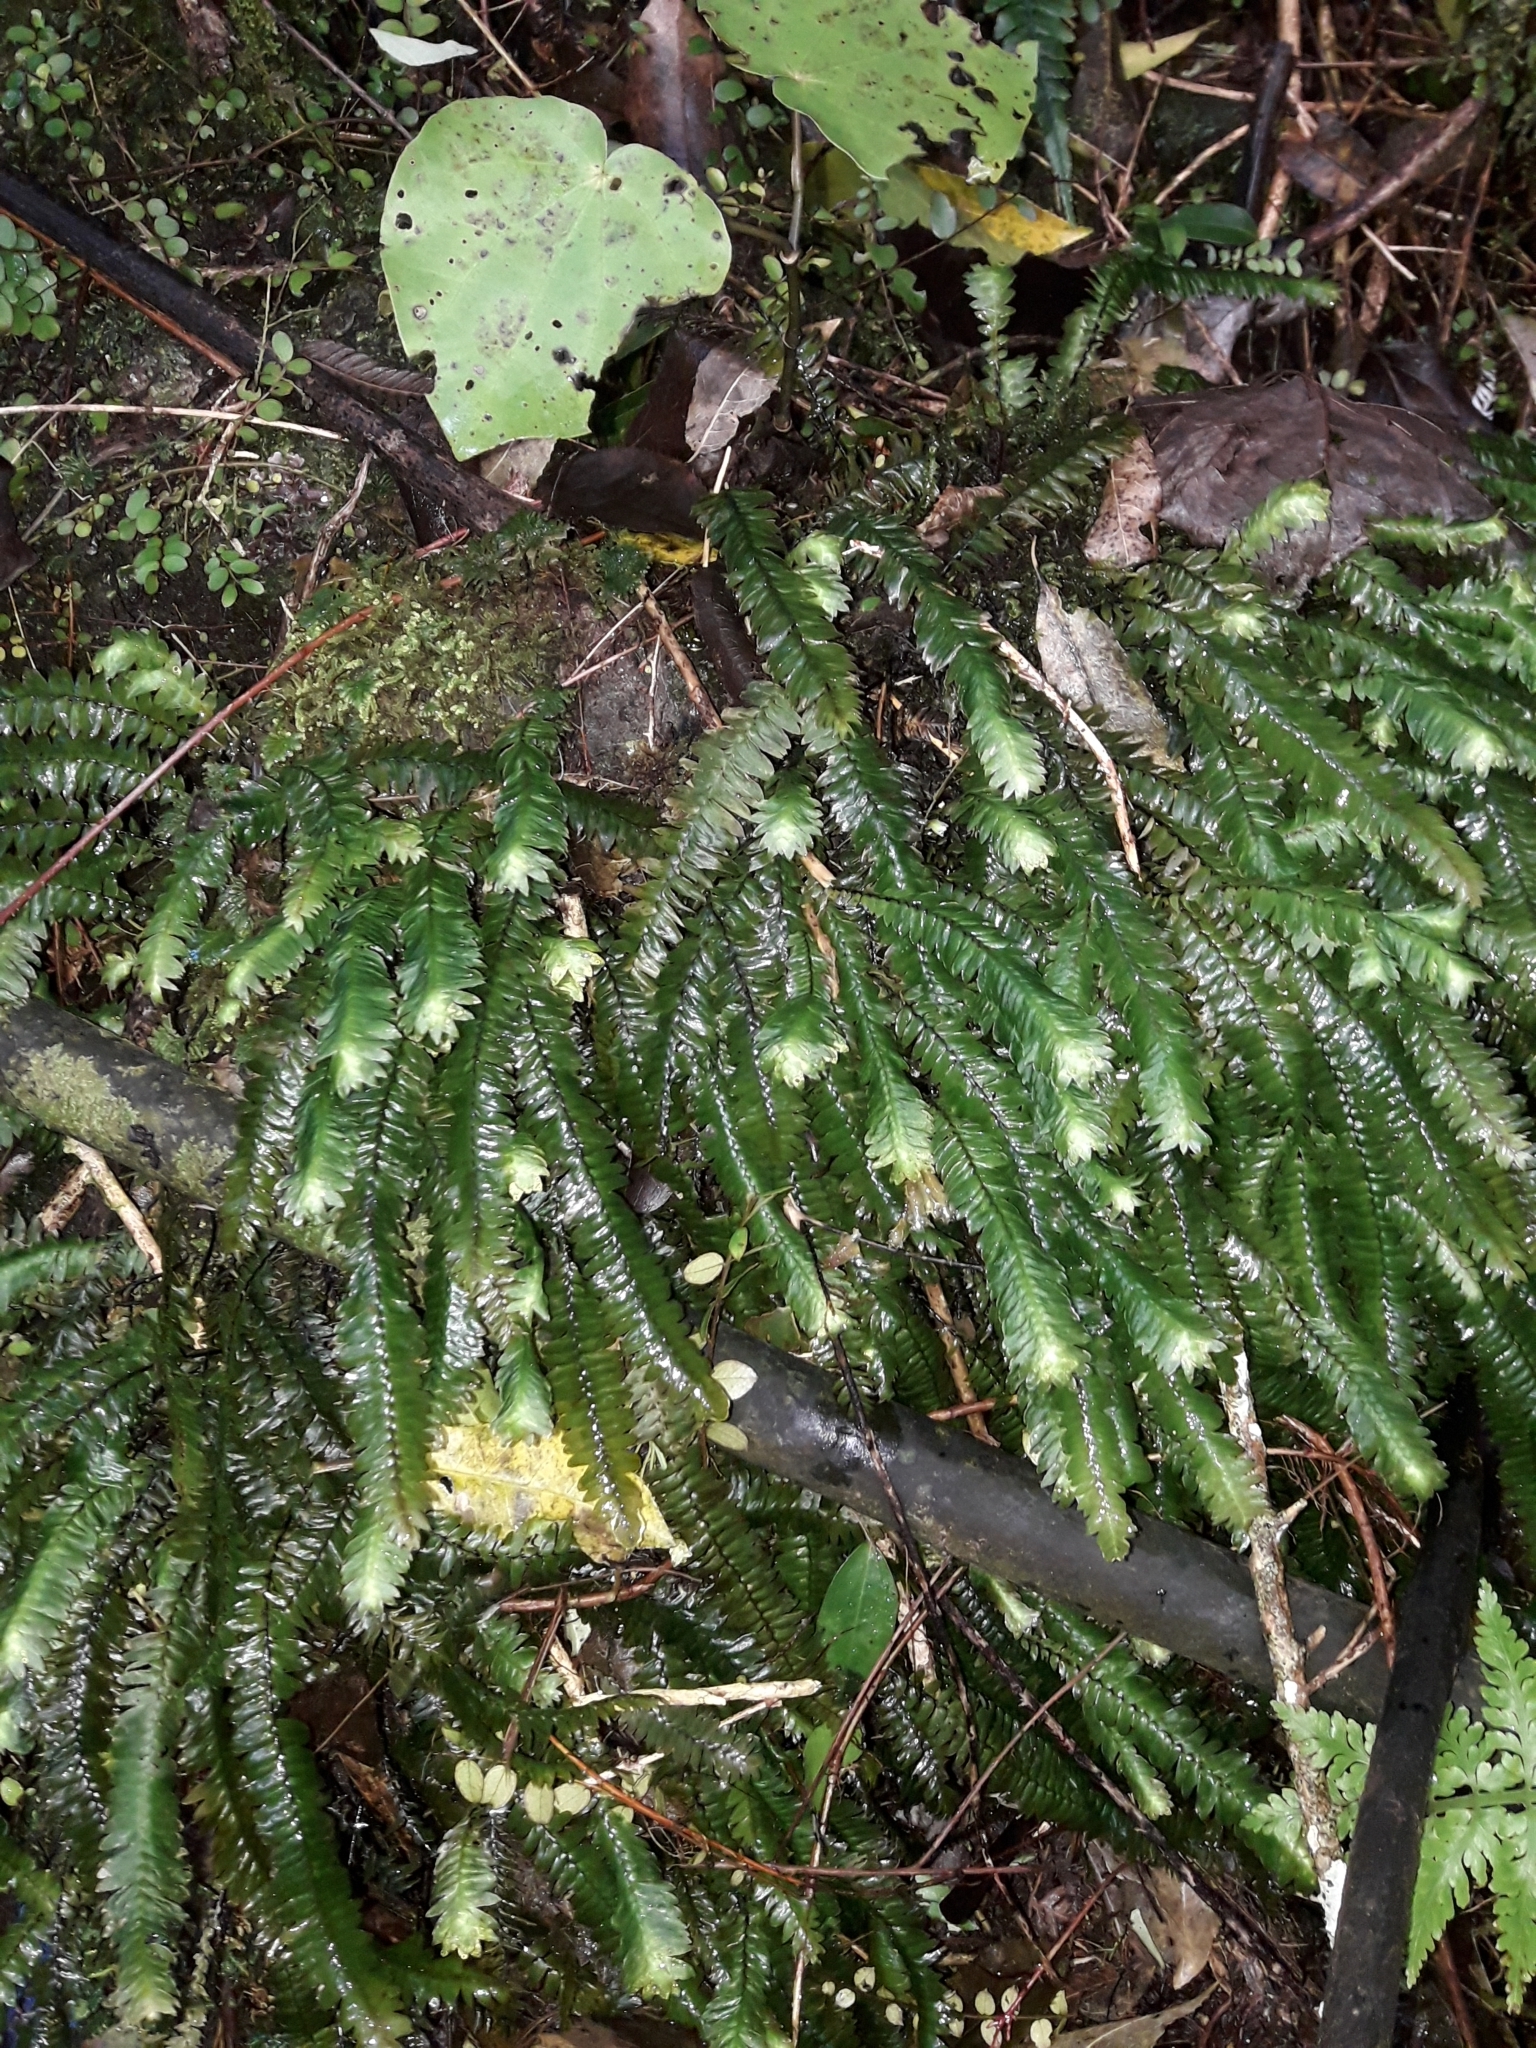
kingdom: Plantae
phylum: Bryophyta
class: Bryopsida
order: Hypopterygiales
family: Hypopterygiaceae
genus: Cyathophorum
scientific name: Cyathophorum bulbosum
